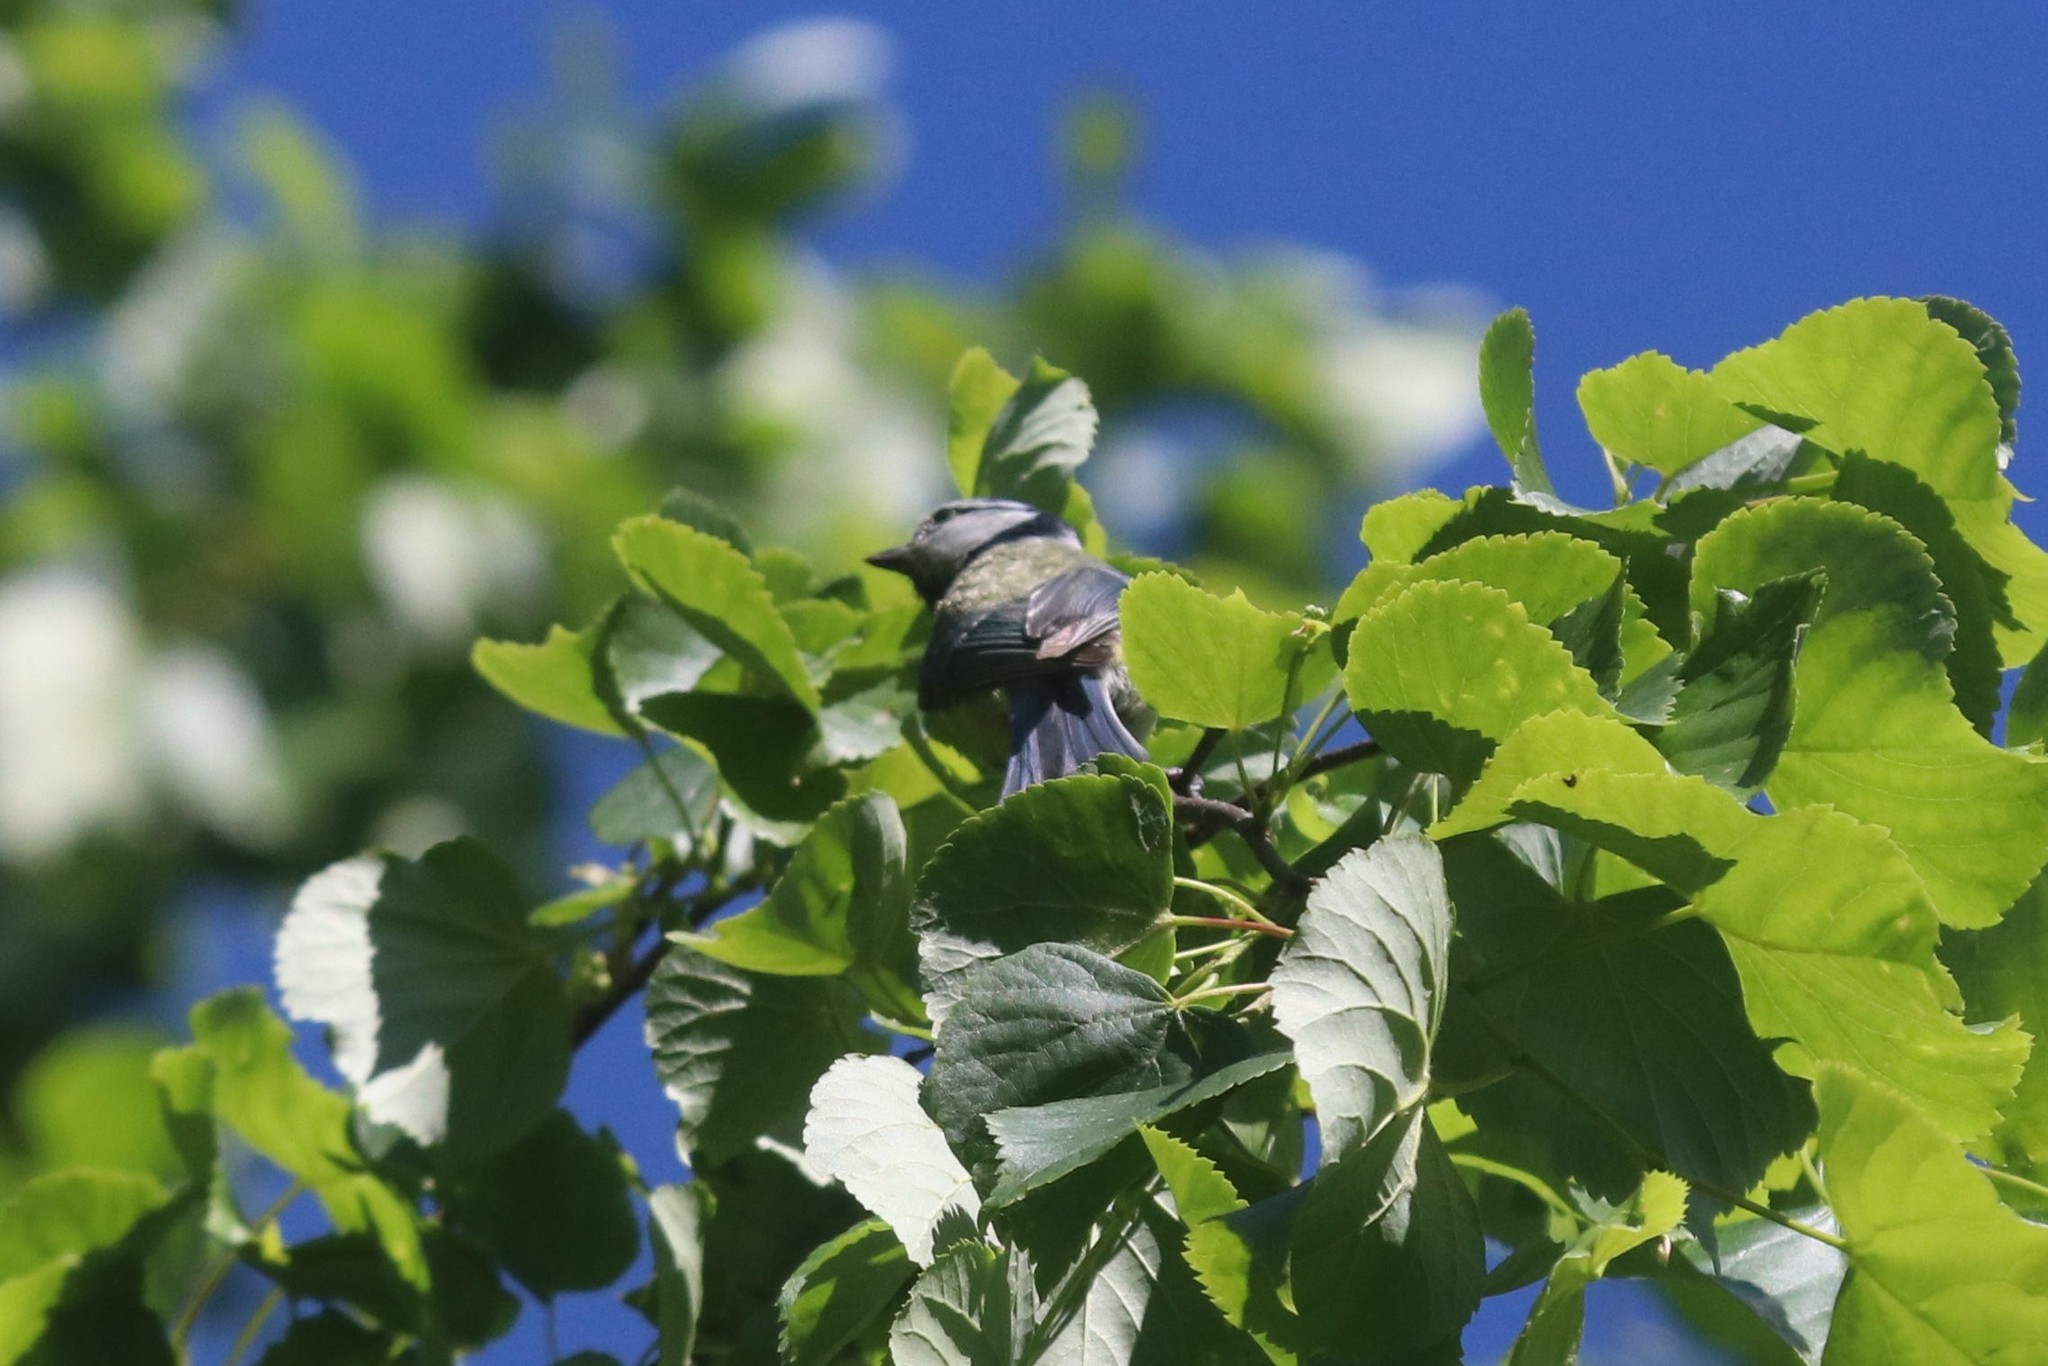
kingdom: Animalia
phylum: Chordata
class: Aves
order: Passeriformes
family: Paridae
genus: Cyanistes
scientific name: Cyanistes caeruleus
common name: Eurasian blue tit
